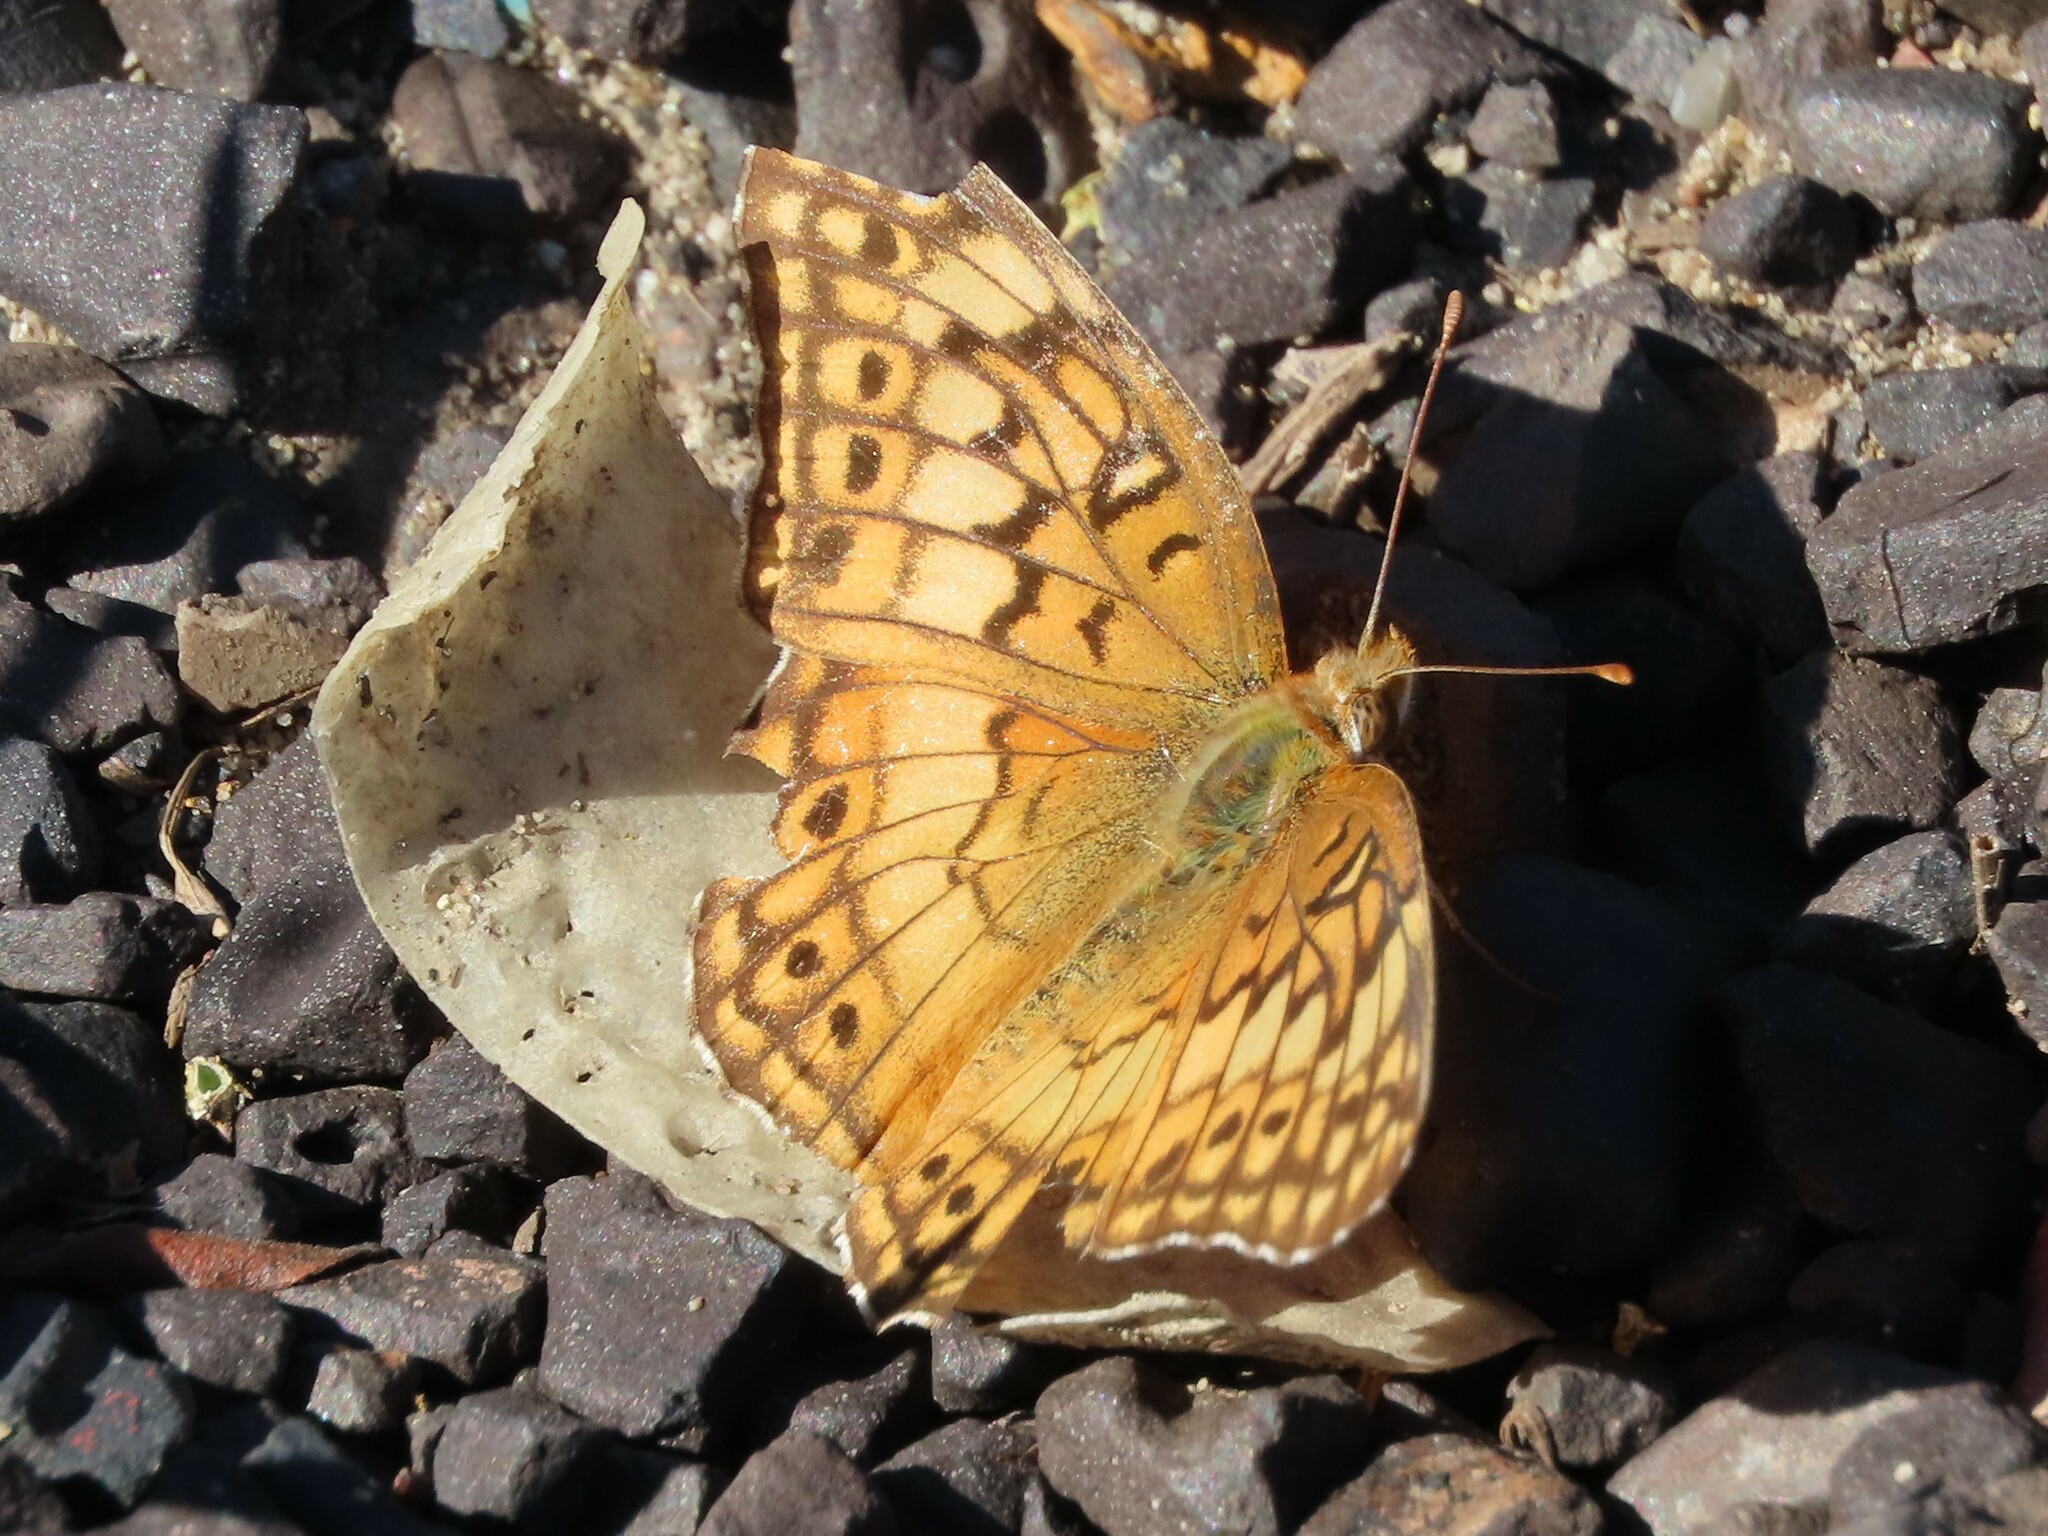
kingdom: Animalia
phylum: Arthropoda
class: Insecta
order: Lepidoptera
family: Nymphalidae
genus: Euptoieta
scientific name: Euptoieta claudia
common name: Variegated fritillary
